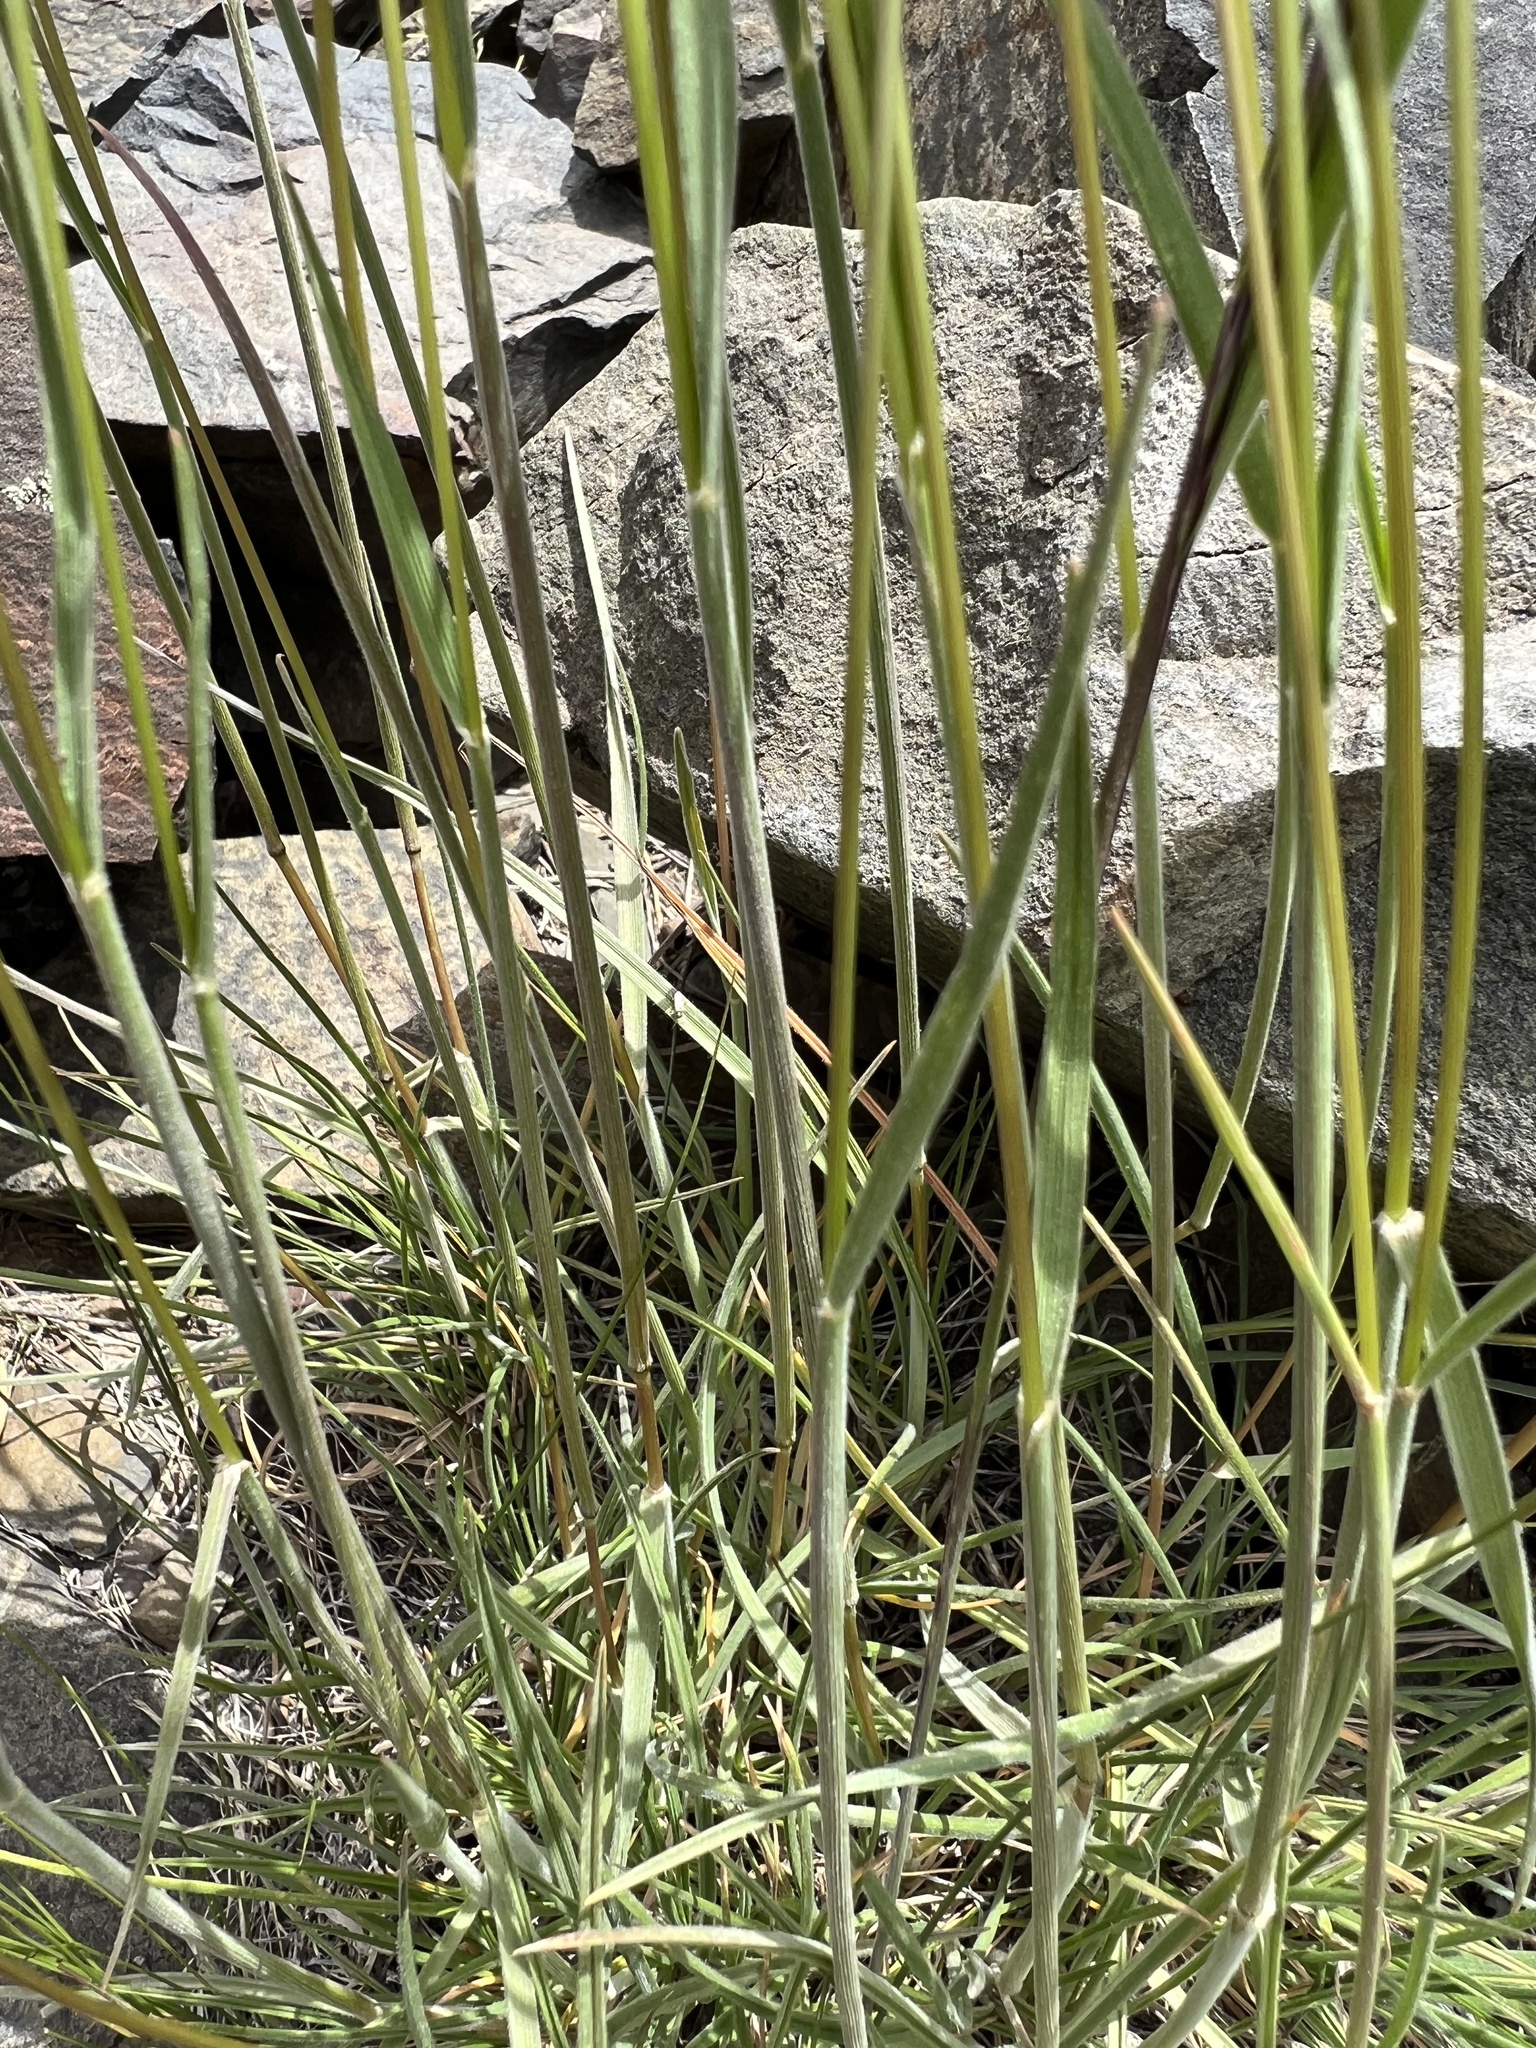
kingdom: Plantae
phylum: Tracheophyta
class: Liliopsida
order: Poales
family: Poaceae
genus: Koeleria
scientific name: Koeleria macrantha
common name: Crested hair-grass
